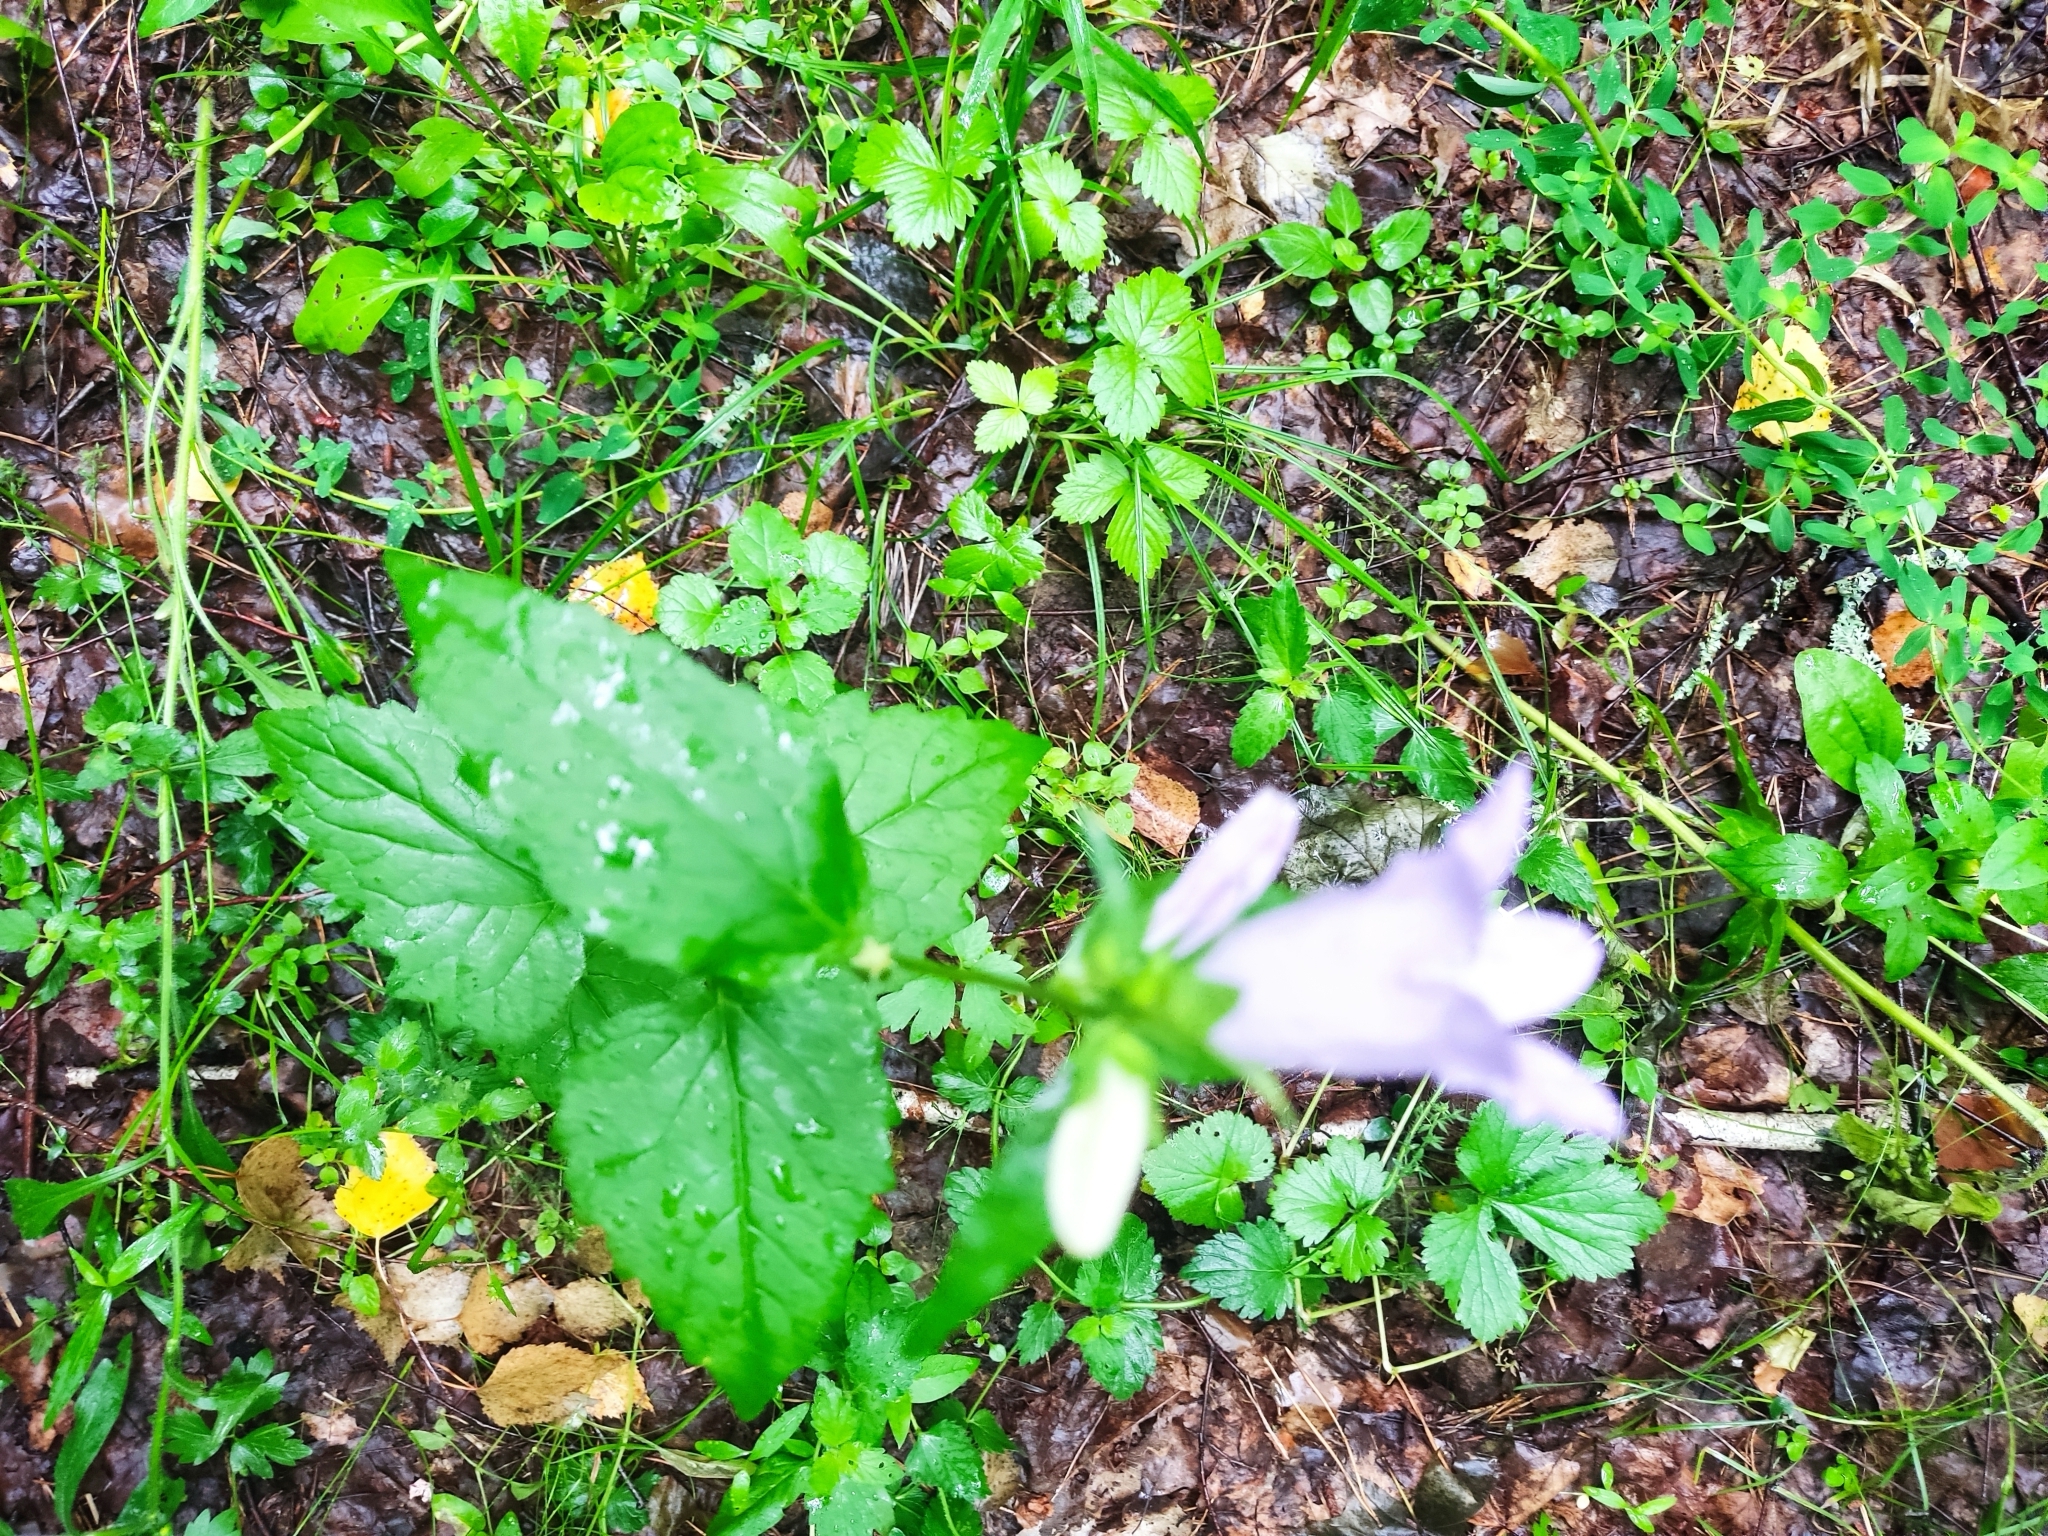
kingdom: Plantae
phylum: Tracheophyta
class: Magnoliopsida
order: Asterales
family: Campanulaceae
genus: Campanula
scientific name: Campanula trachelium
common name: Nettle-leaved bellflower
